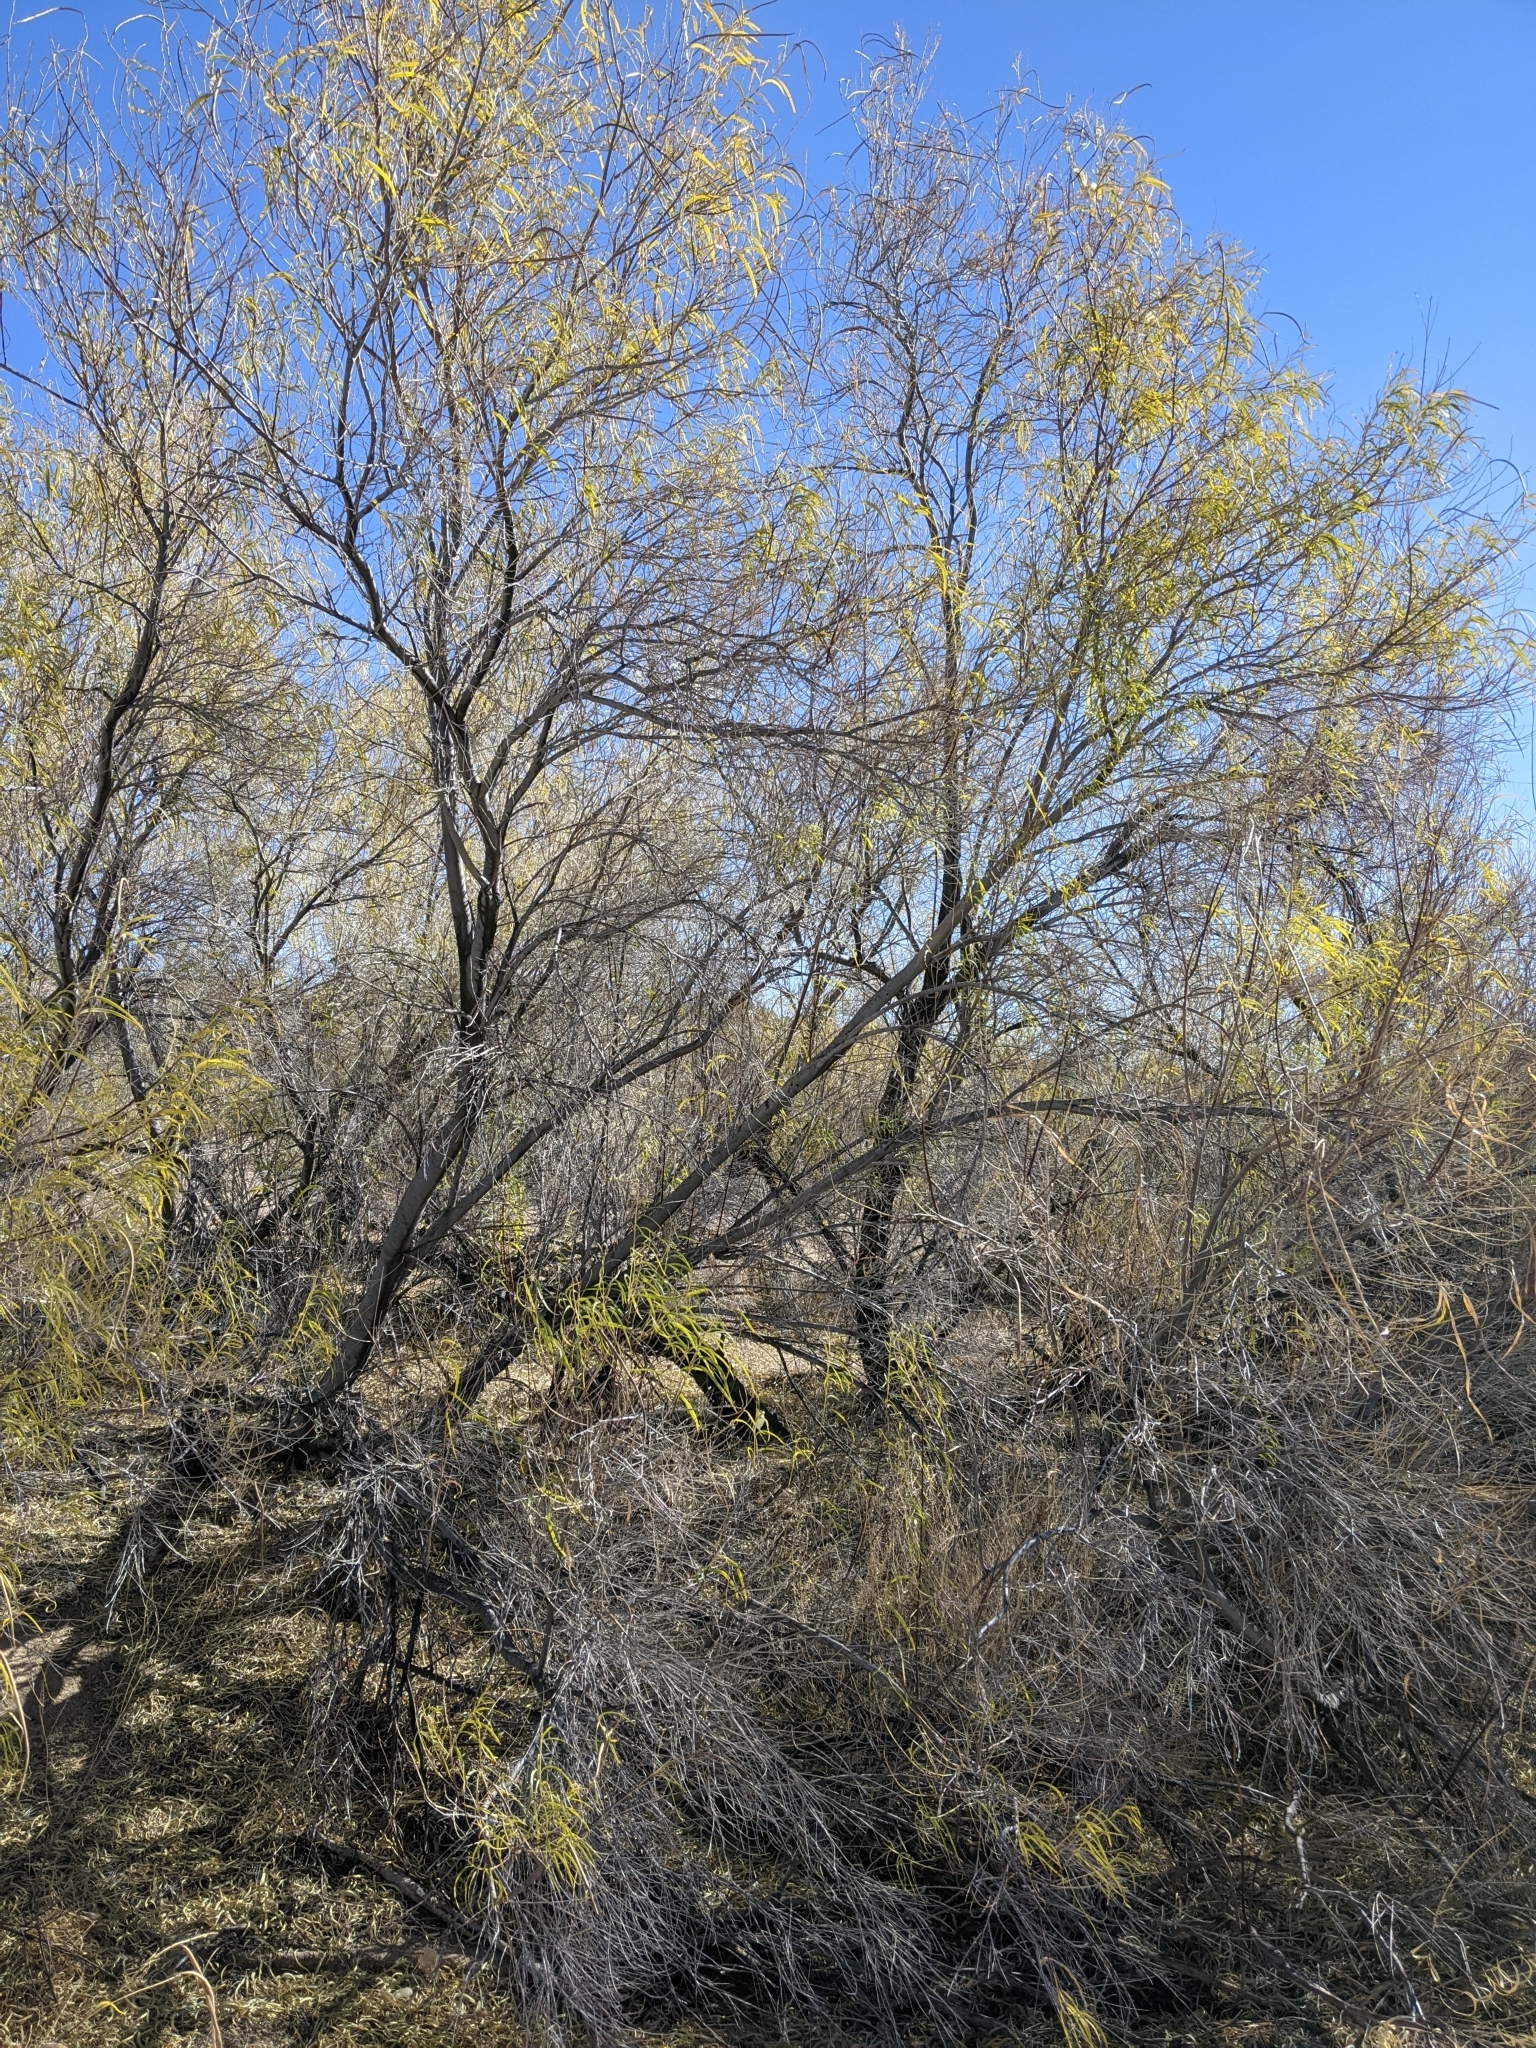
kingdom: Plantae
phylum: Tracheophyta
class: Magnoliopsida
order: Lamiales
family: Bignoniaceae
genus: Chilopsis
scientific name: Chilopsis linearis
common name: Desert-willow
